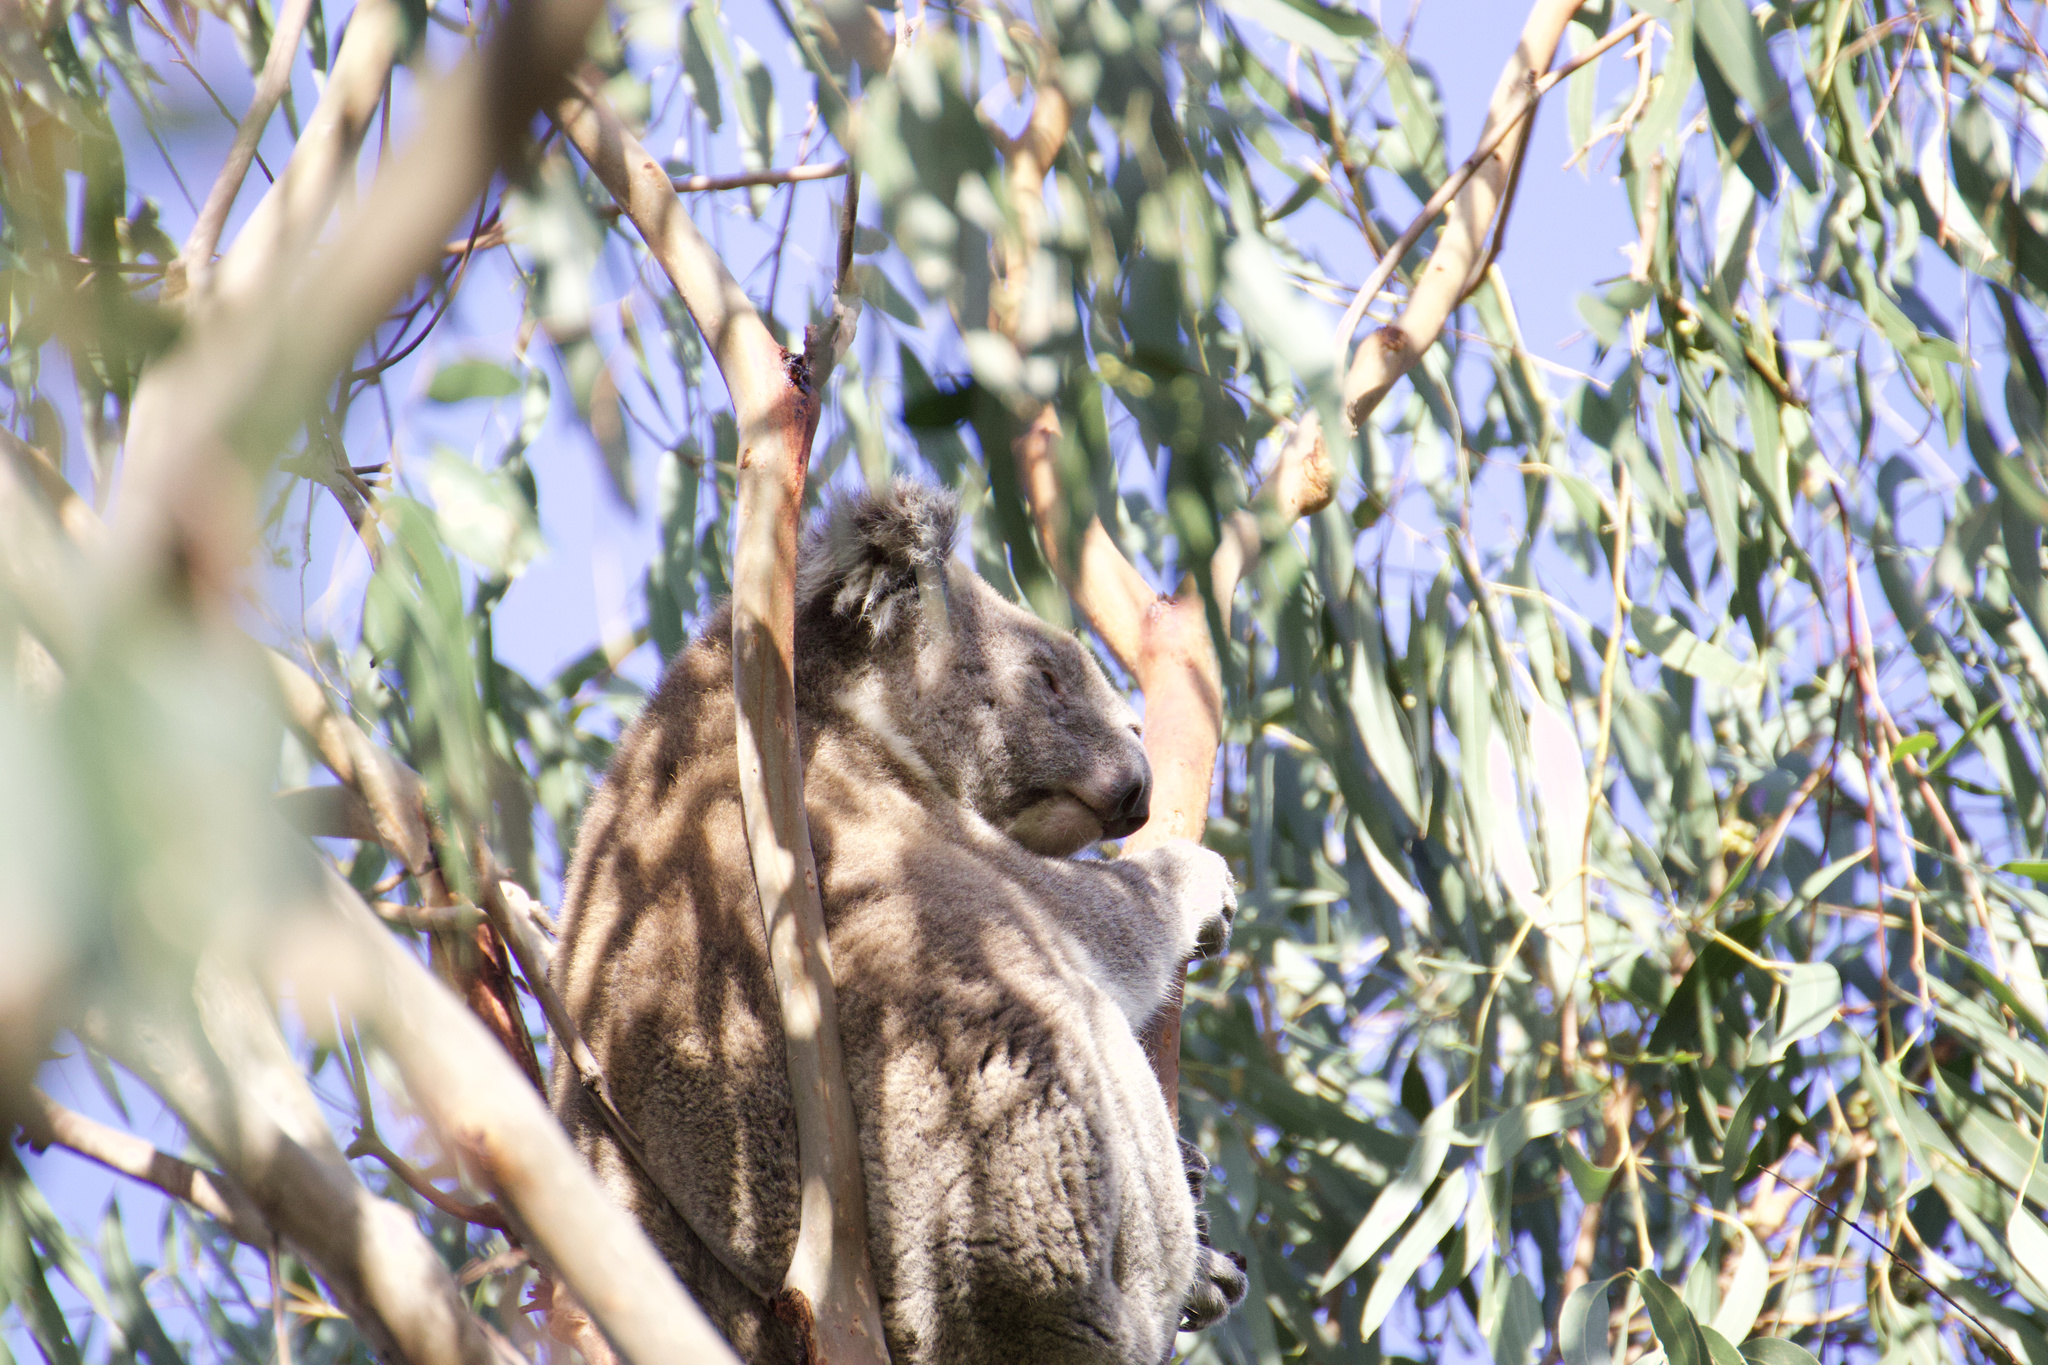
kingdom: Animalia
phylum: Chordata
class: Mammalia
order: Diprotodontia
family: Phascolarctidae
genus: Phascolarctos
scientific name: Phascolarctos cinereus
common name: Koala
